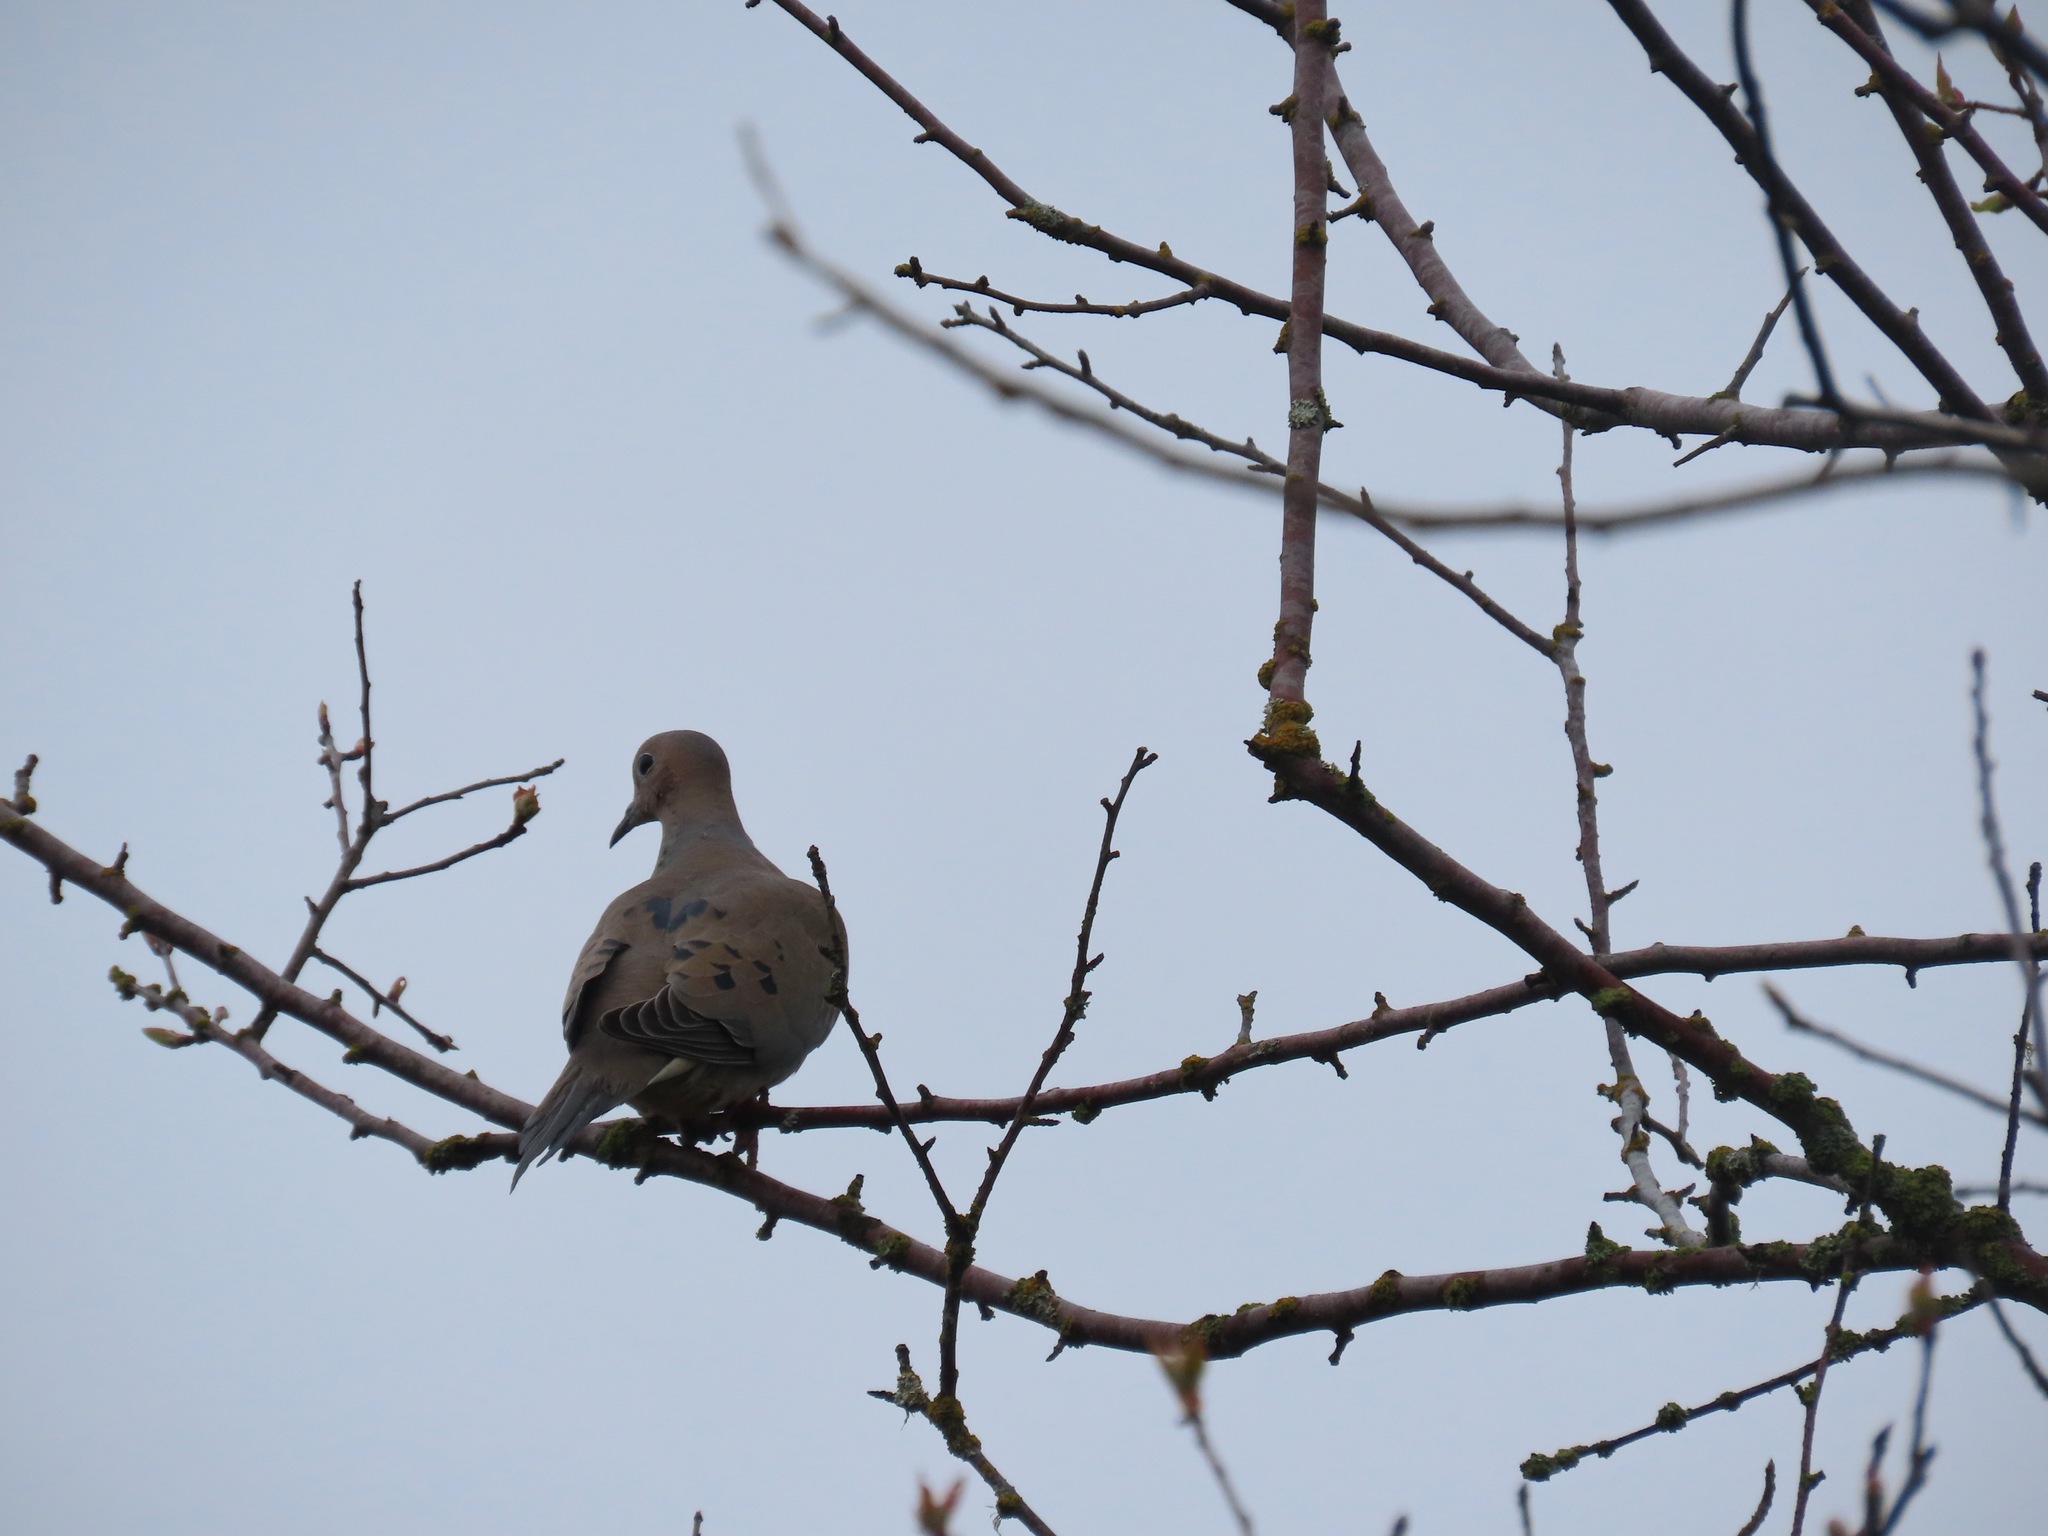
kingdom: Animalia
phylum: Chordata
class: Aves
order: Columbiformes
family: Columbidae
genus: Zenaida
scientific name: Zenaida macroura
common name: Mourning dove
